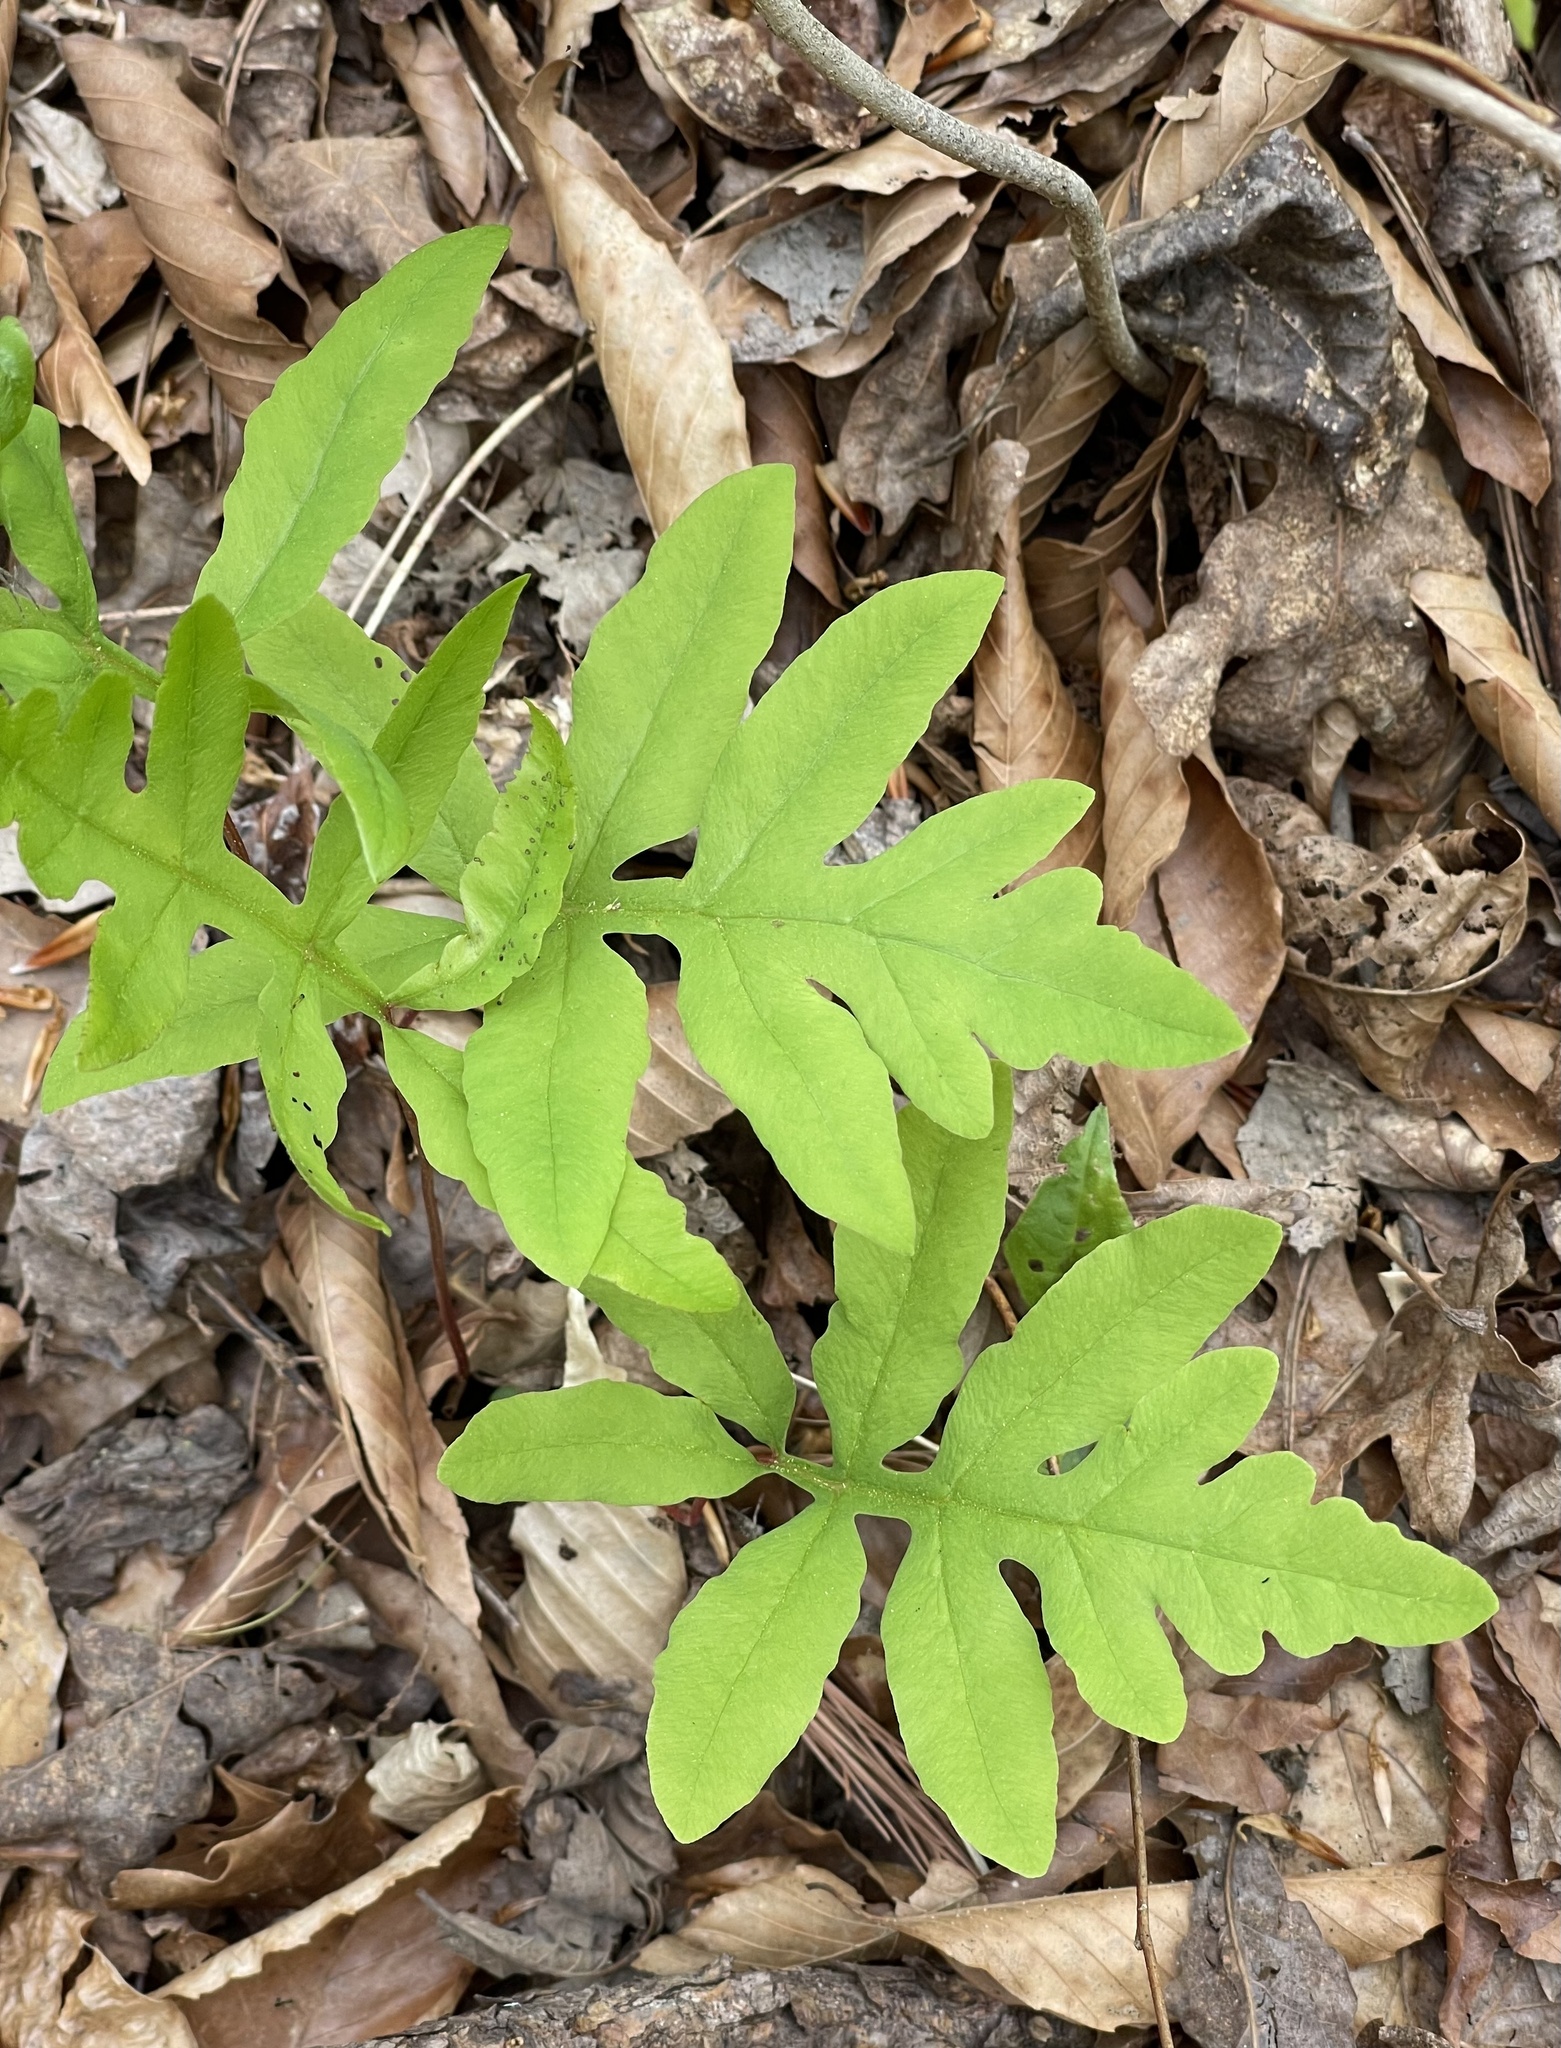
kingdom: Plantae
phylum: Tracheophyta
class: Polypodiopsida
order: Polypodiales
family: Onocleaceae
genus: Onoclea
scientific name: Onoclea sensibilis
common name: Sensitive fern
